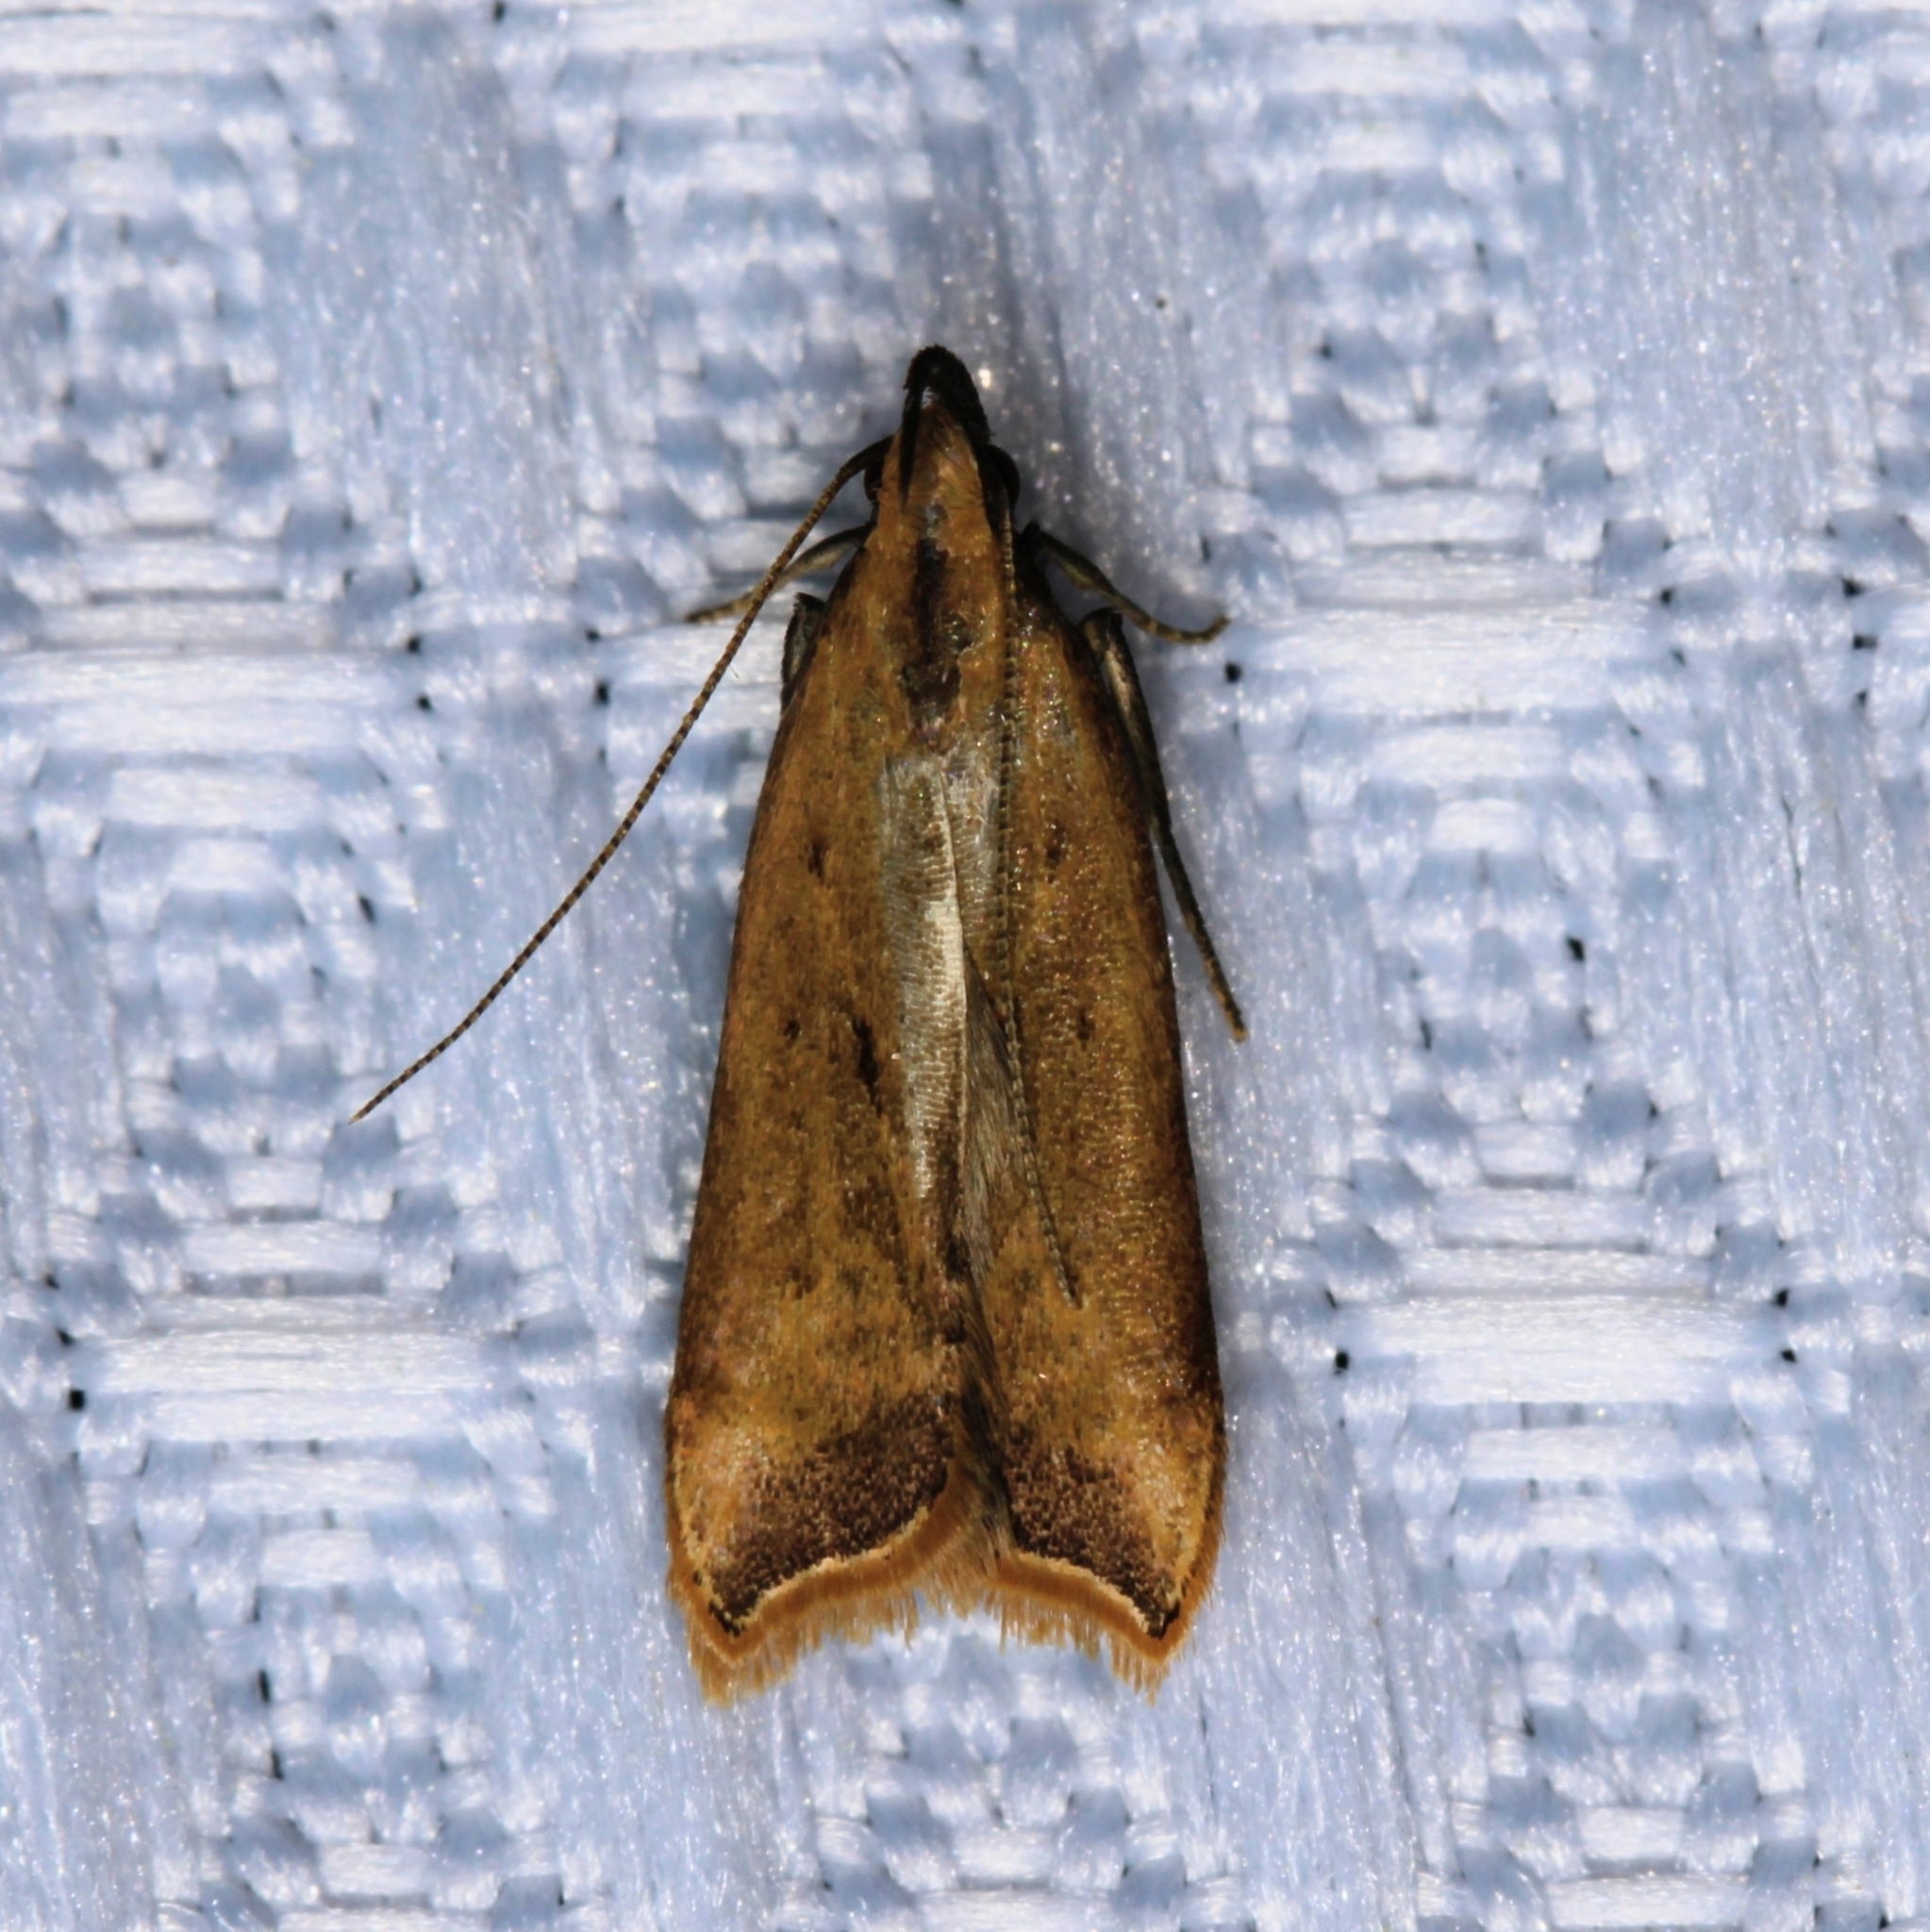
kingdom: Animalia
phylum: Arthropoda
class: Insecta
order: Lepidoptera
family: Gelechiidae
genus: Dichomeris
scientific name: Dichomeris heriguronis
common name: Black-edged dichomeris moth
